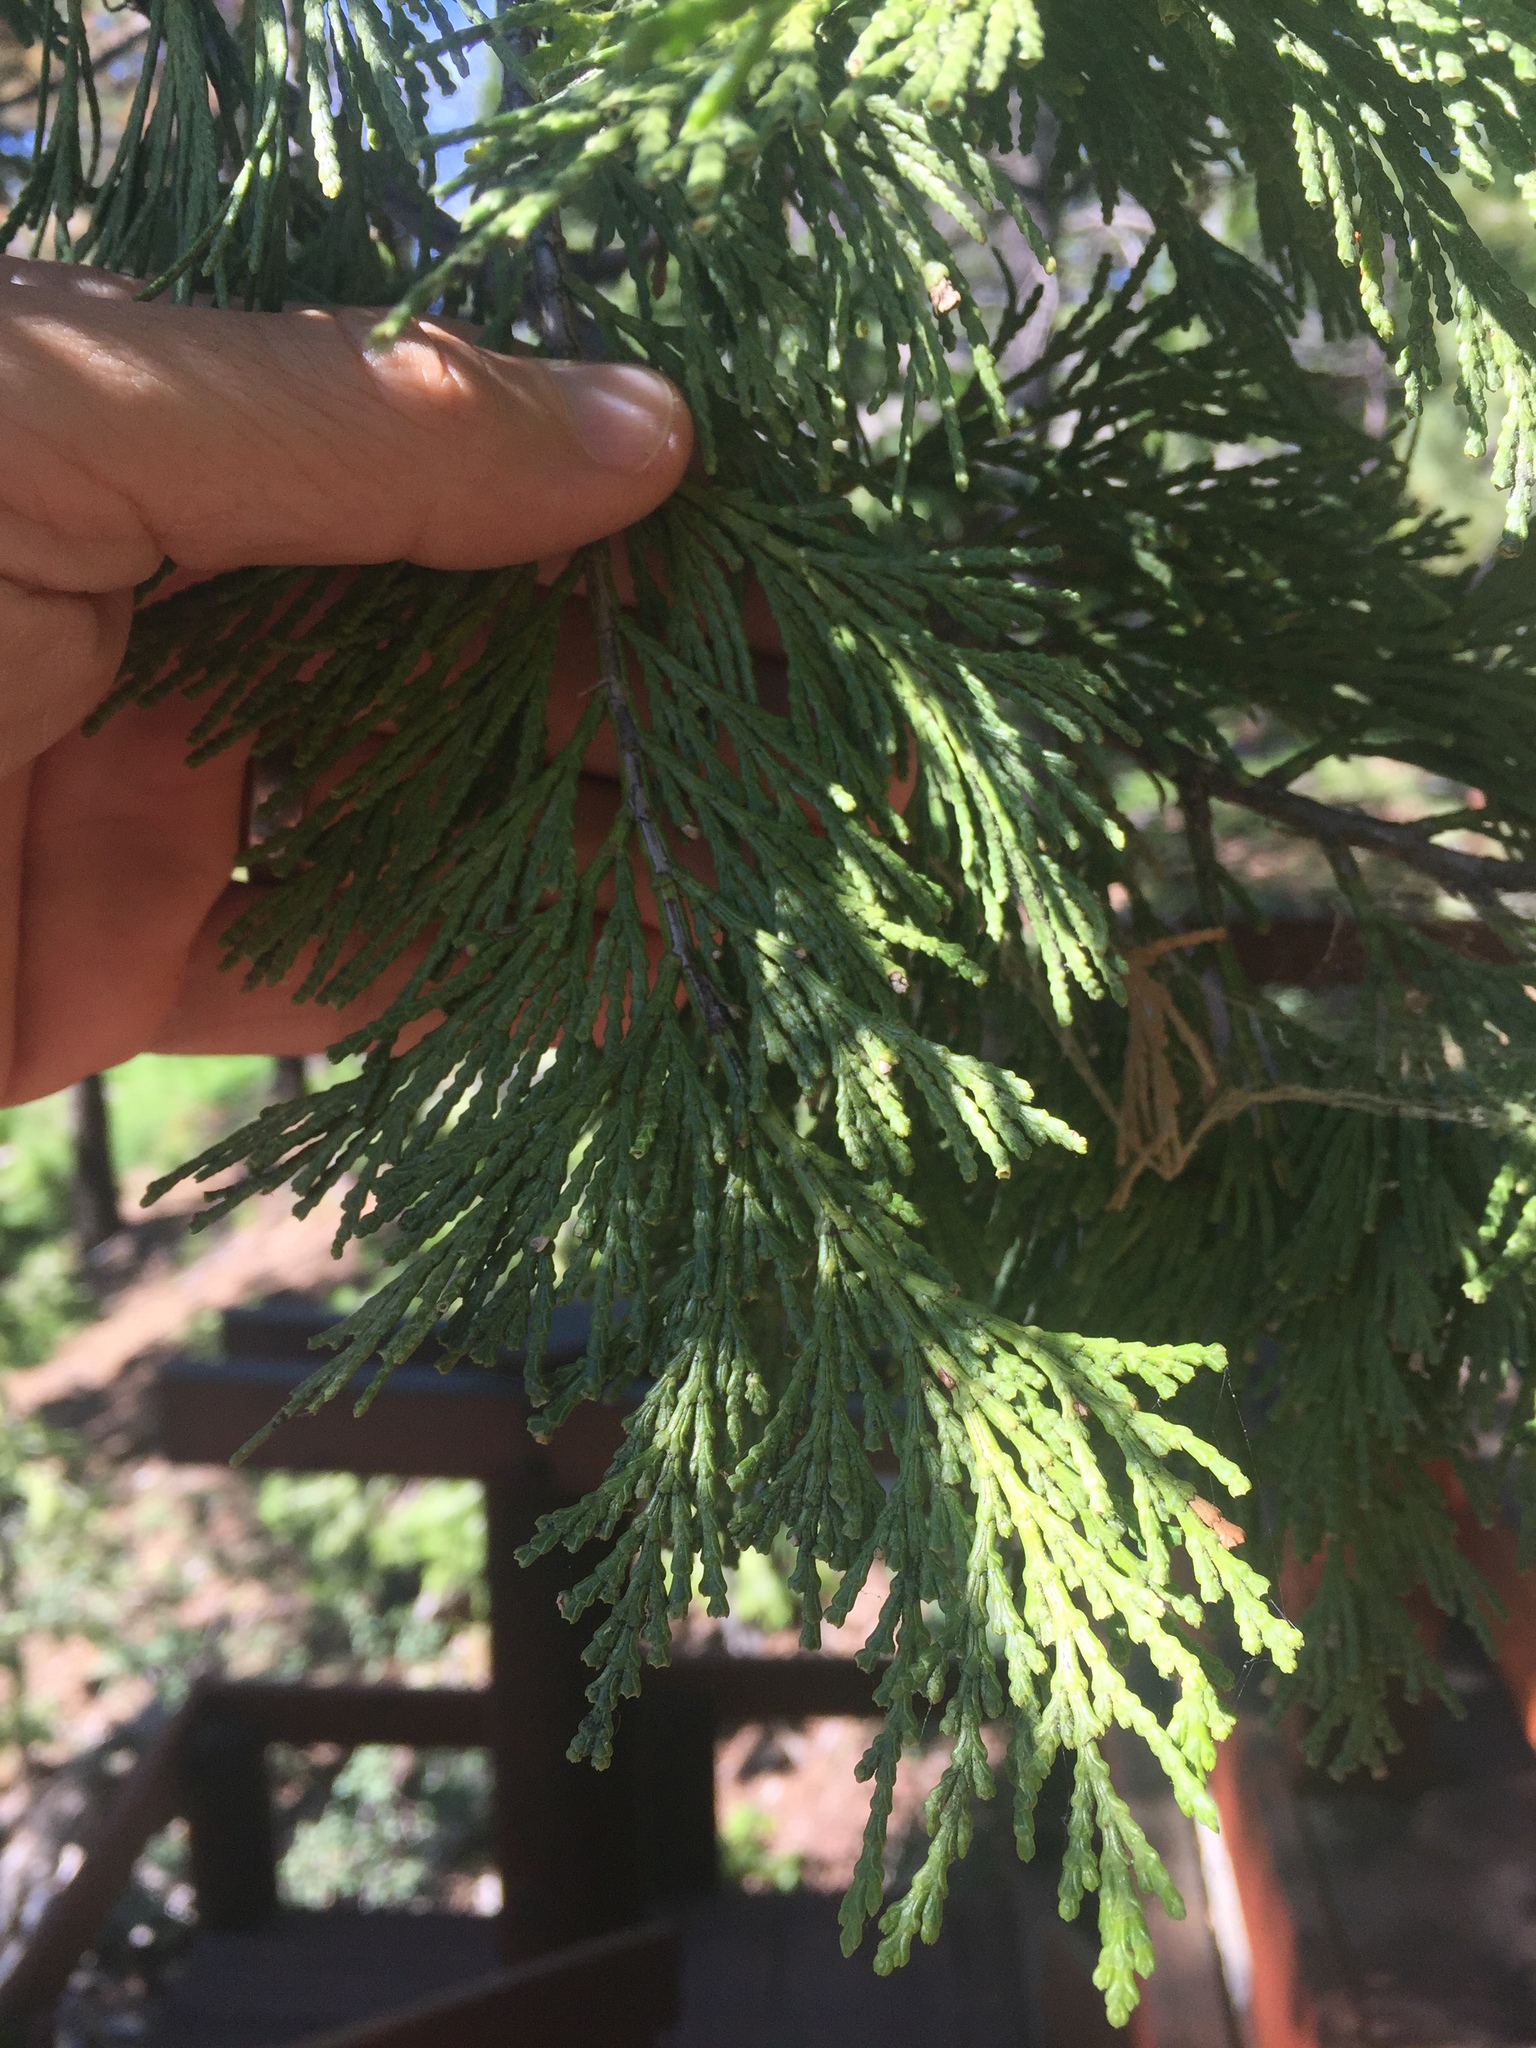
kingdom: Plantae
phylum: Tracheophyta
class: Pinopsida
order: Pinales
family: Cupressaceae
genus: Calocedrus
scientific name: Calocedrus decurrens
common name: Californian incense-cedar
